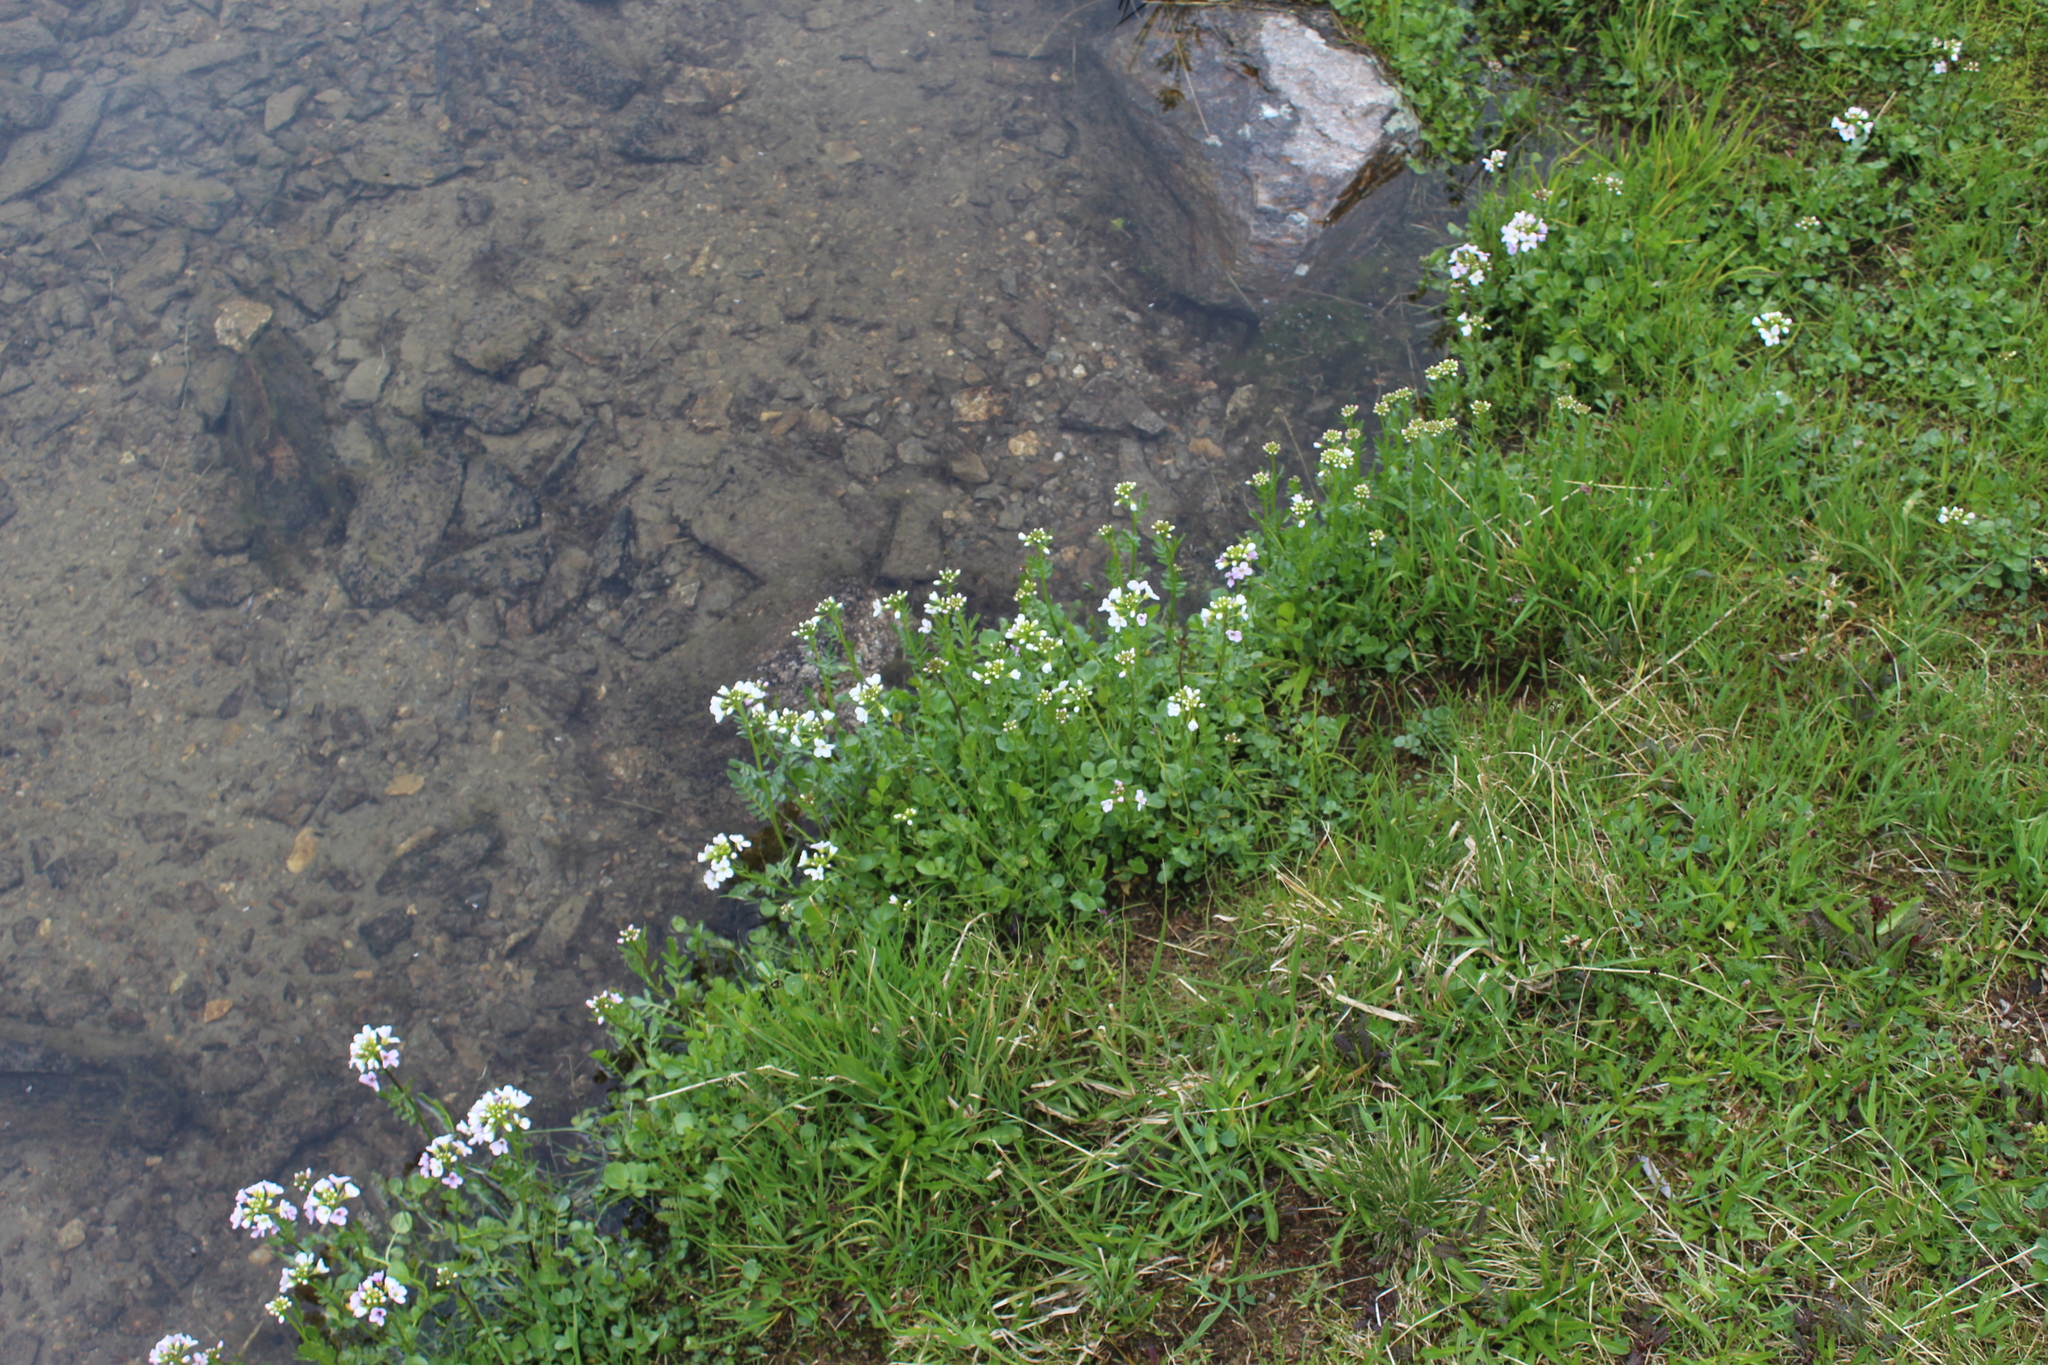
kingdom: Plantae
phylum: Tracheophyta
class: Magnoliopsida
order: Brassicales
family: Brassicaceae
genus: Cardamine
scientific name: Cardamine uliginosa
